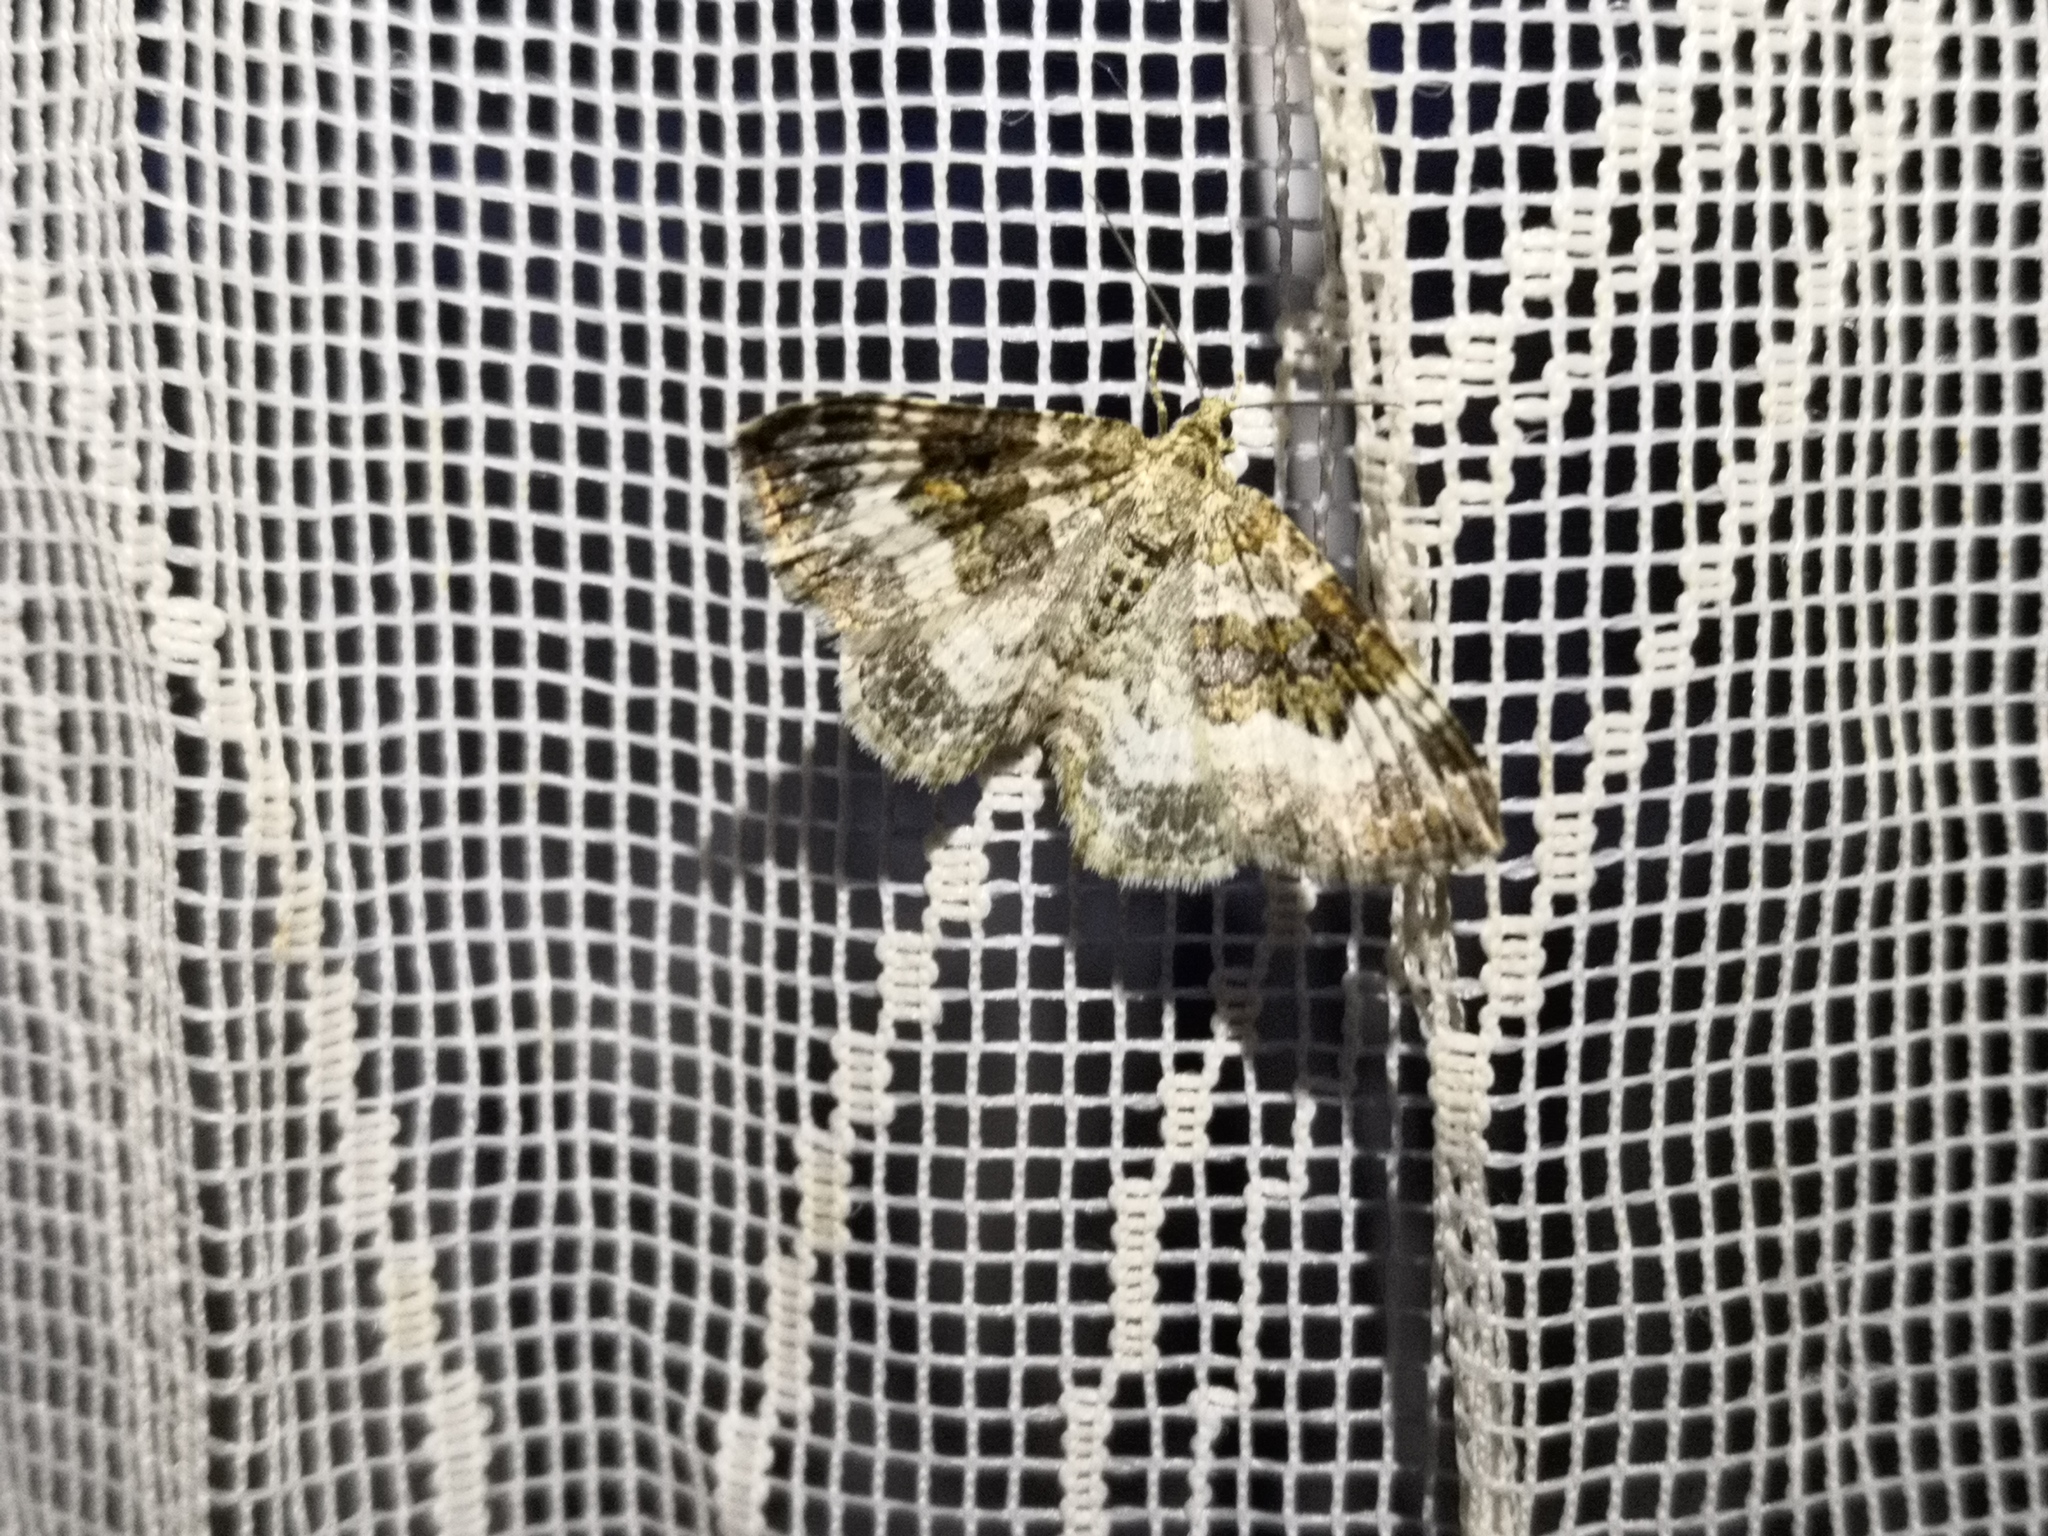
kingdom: Animalia
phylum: Arthropoda
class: Insecta
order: Lepidoptera
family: Geometridae
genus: Epirrhoe
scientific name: Epirrhoe alternata
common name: Common carpet
